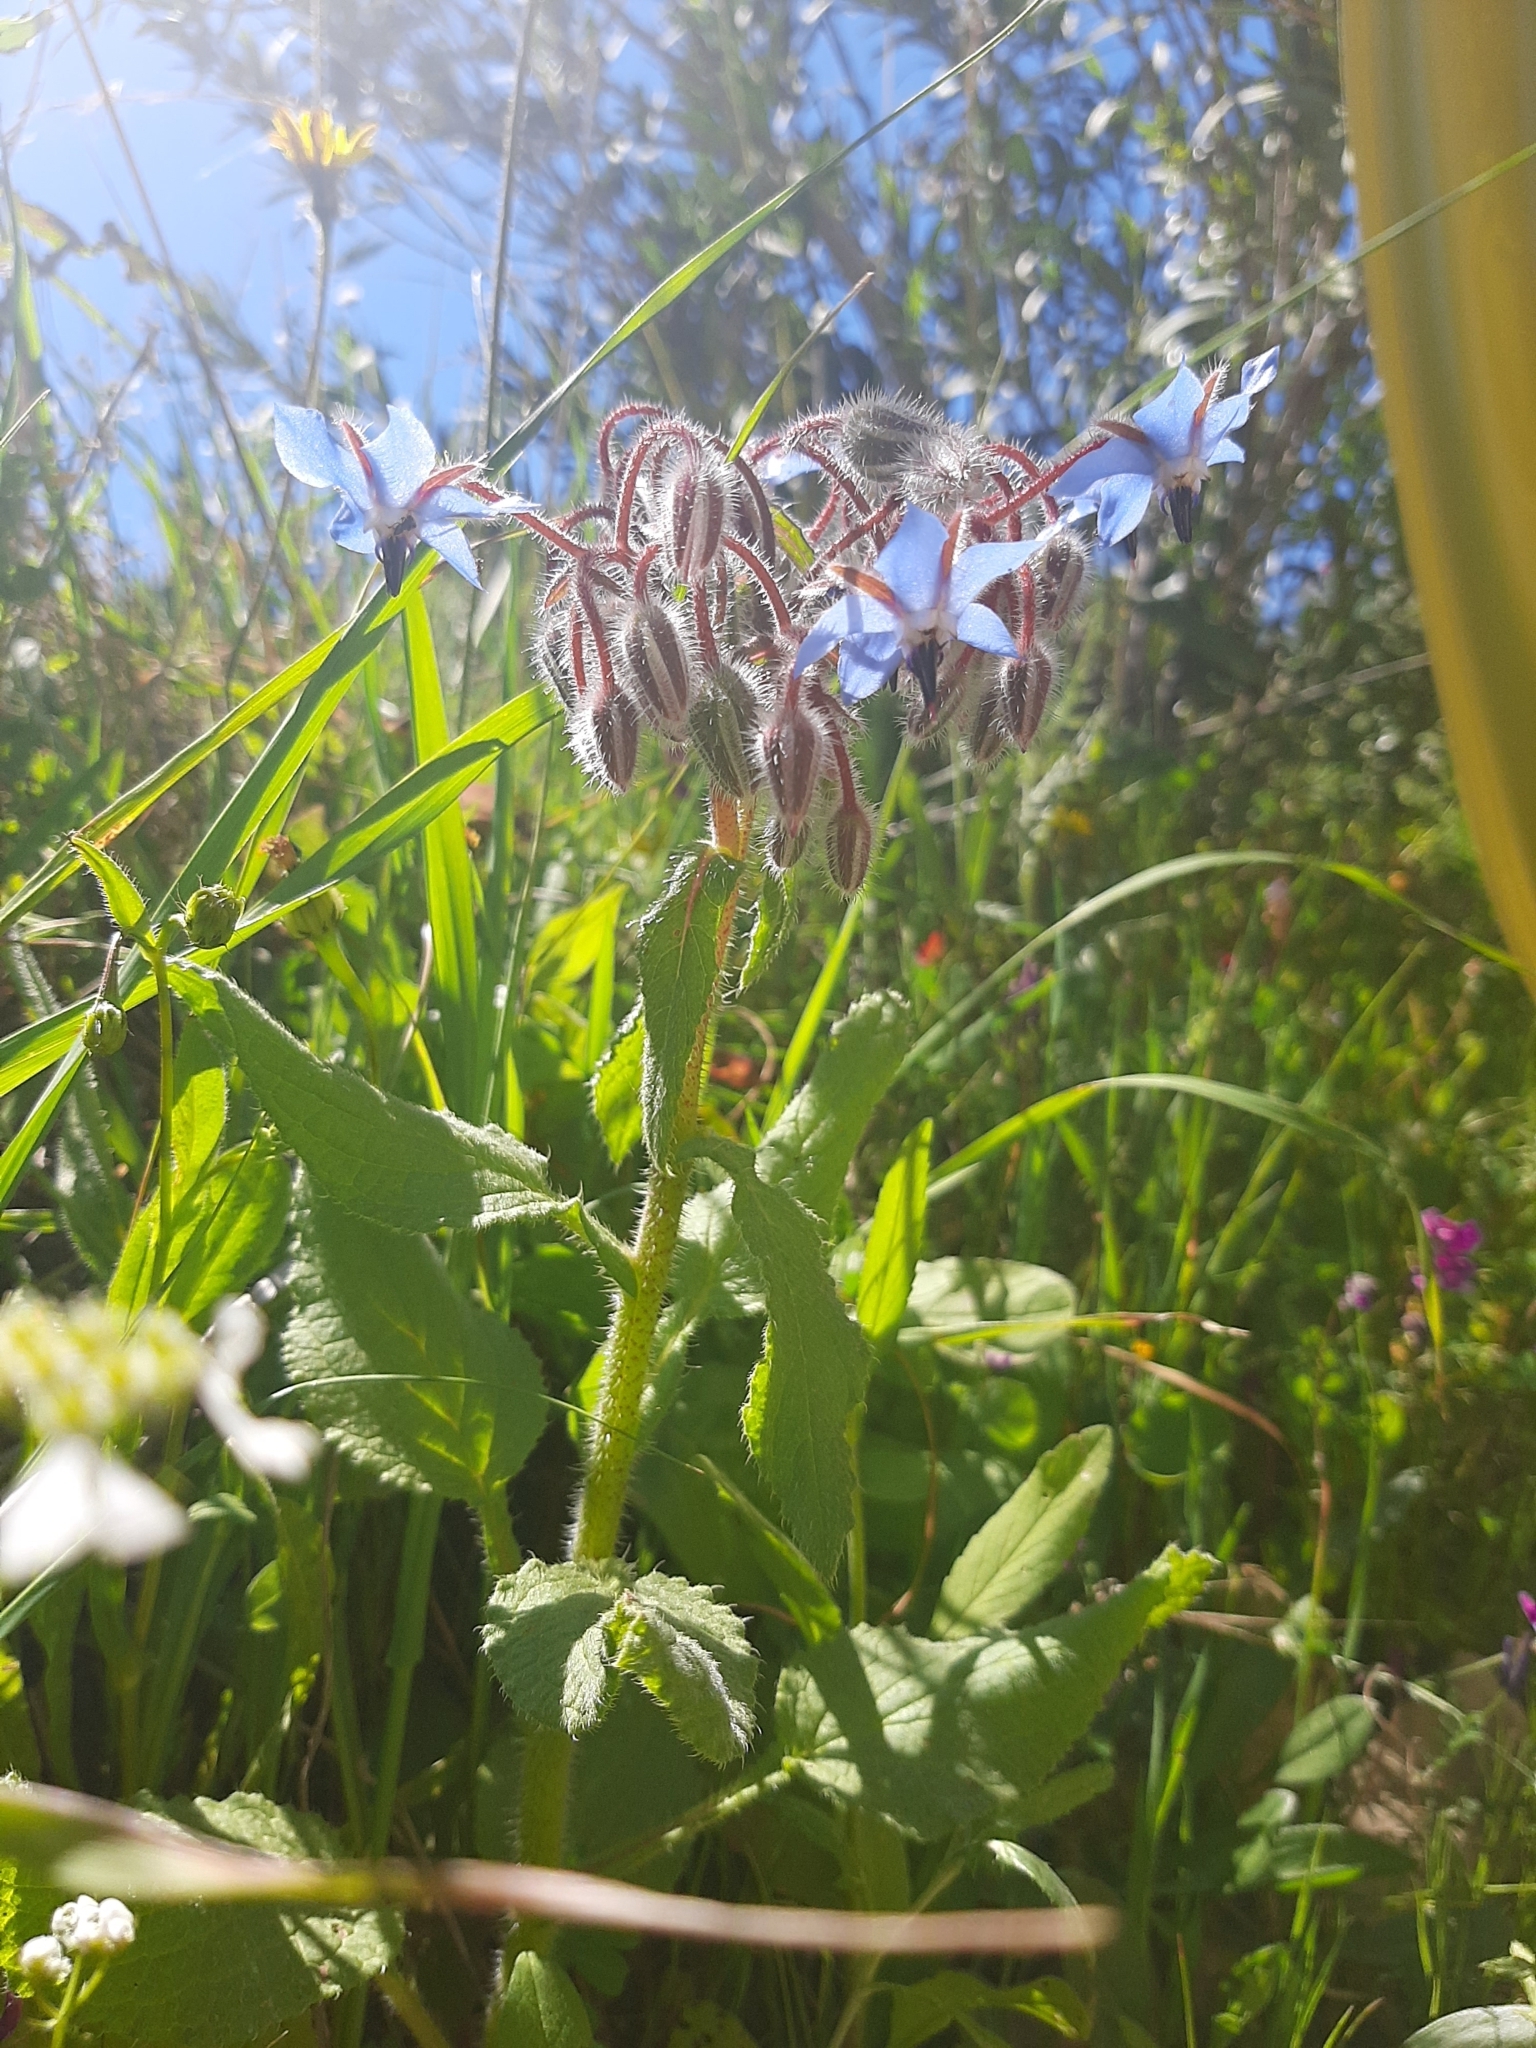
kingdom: Plantae
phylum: Tracheophyta
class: Magnoliopsida
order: Boraginales
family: Boraginaceae
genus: Borago
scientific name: Borago officinalis
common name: Borage
